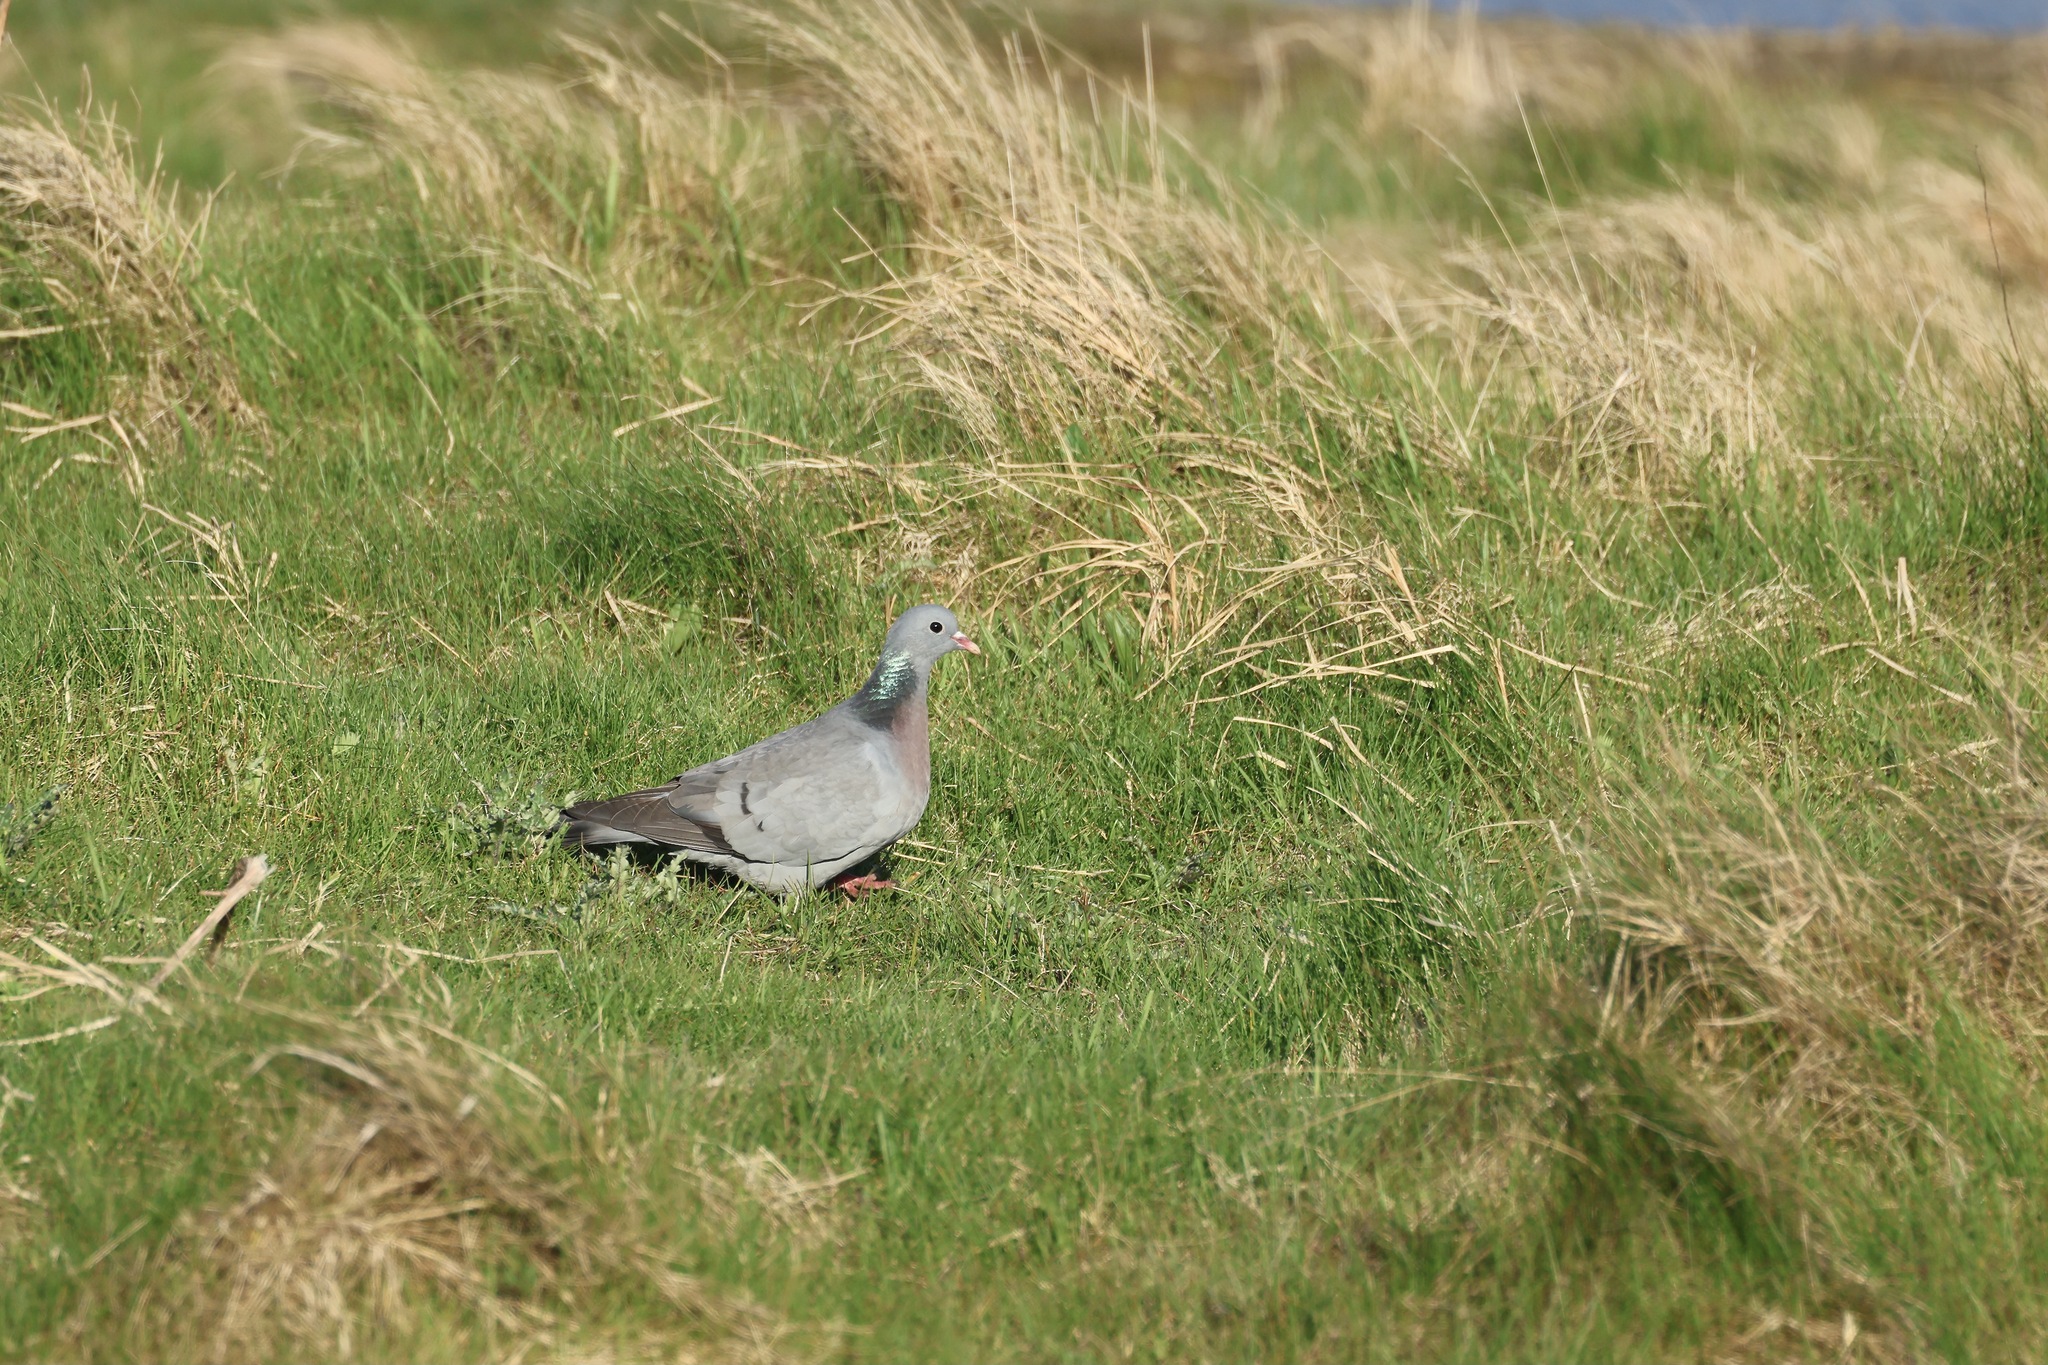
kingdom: Animalia
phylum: Chordata
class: Aves
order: Columbiformes
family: Columbidae
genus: Columba
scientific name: Columba oenas
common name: Stock dove
